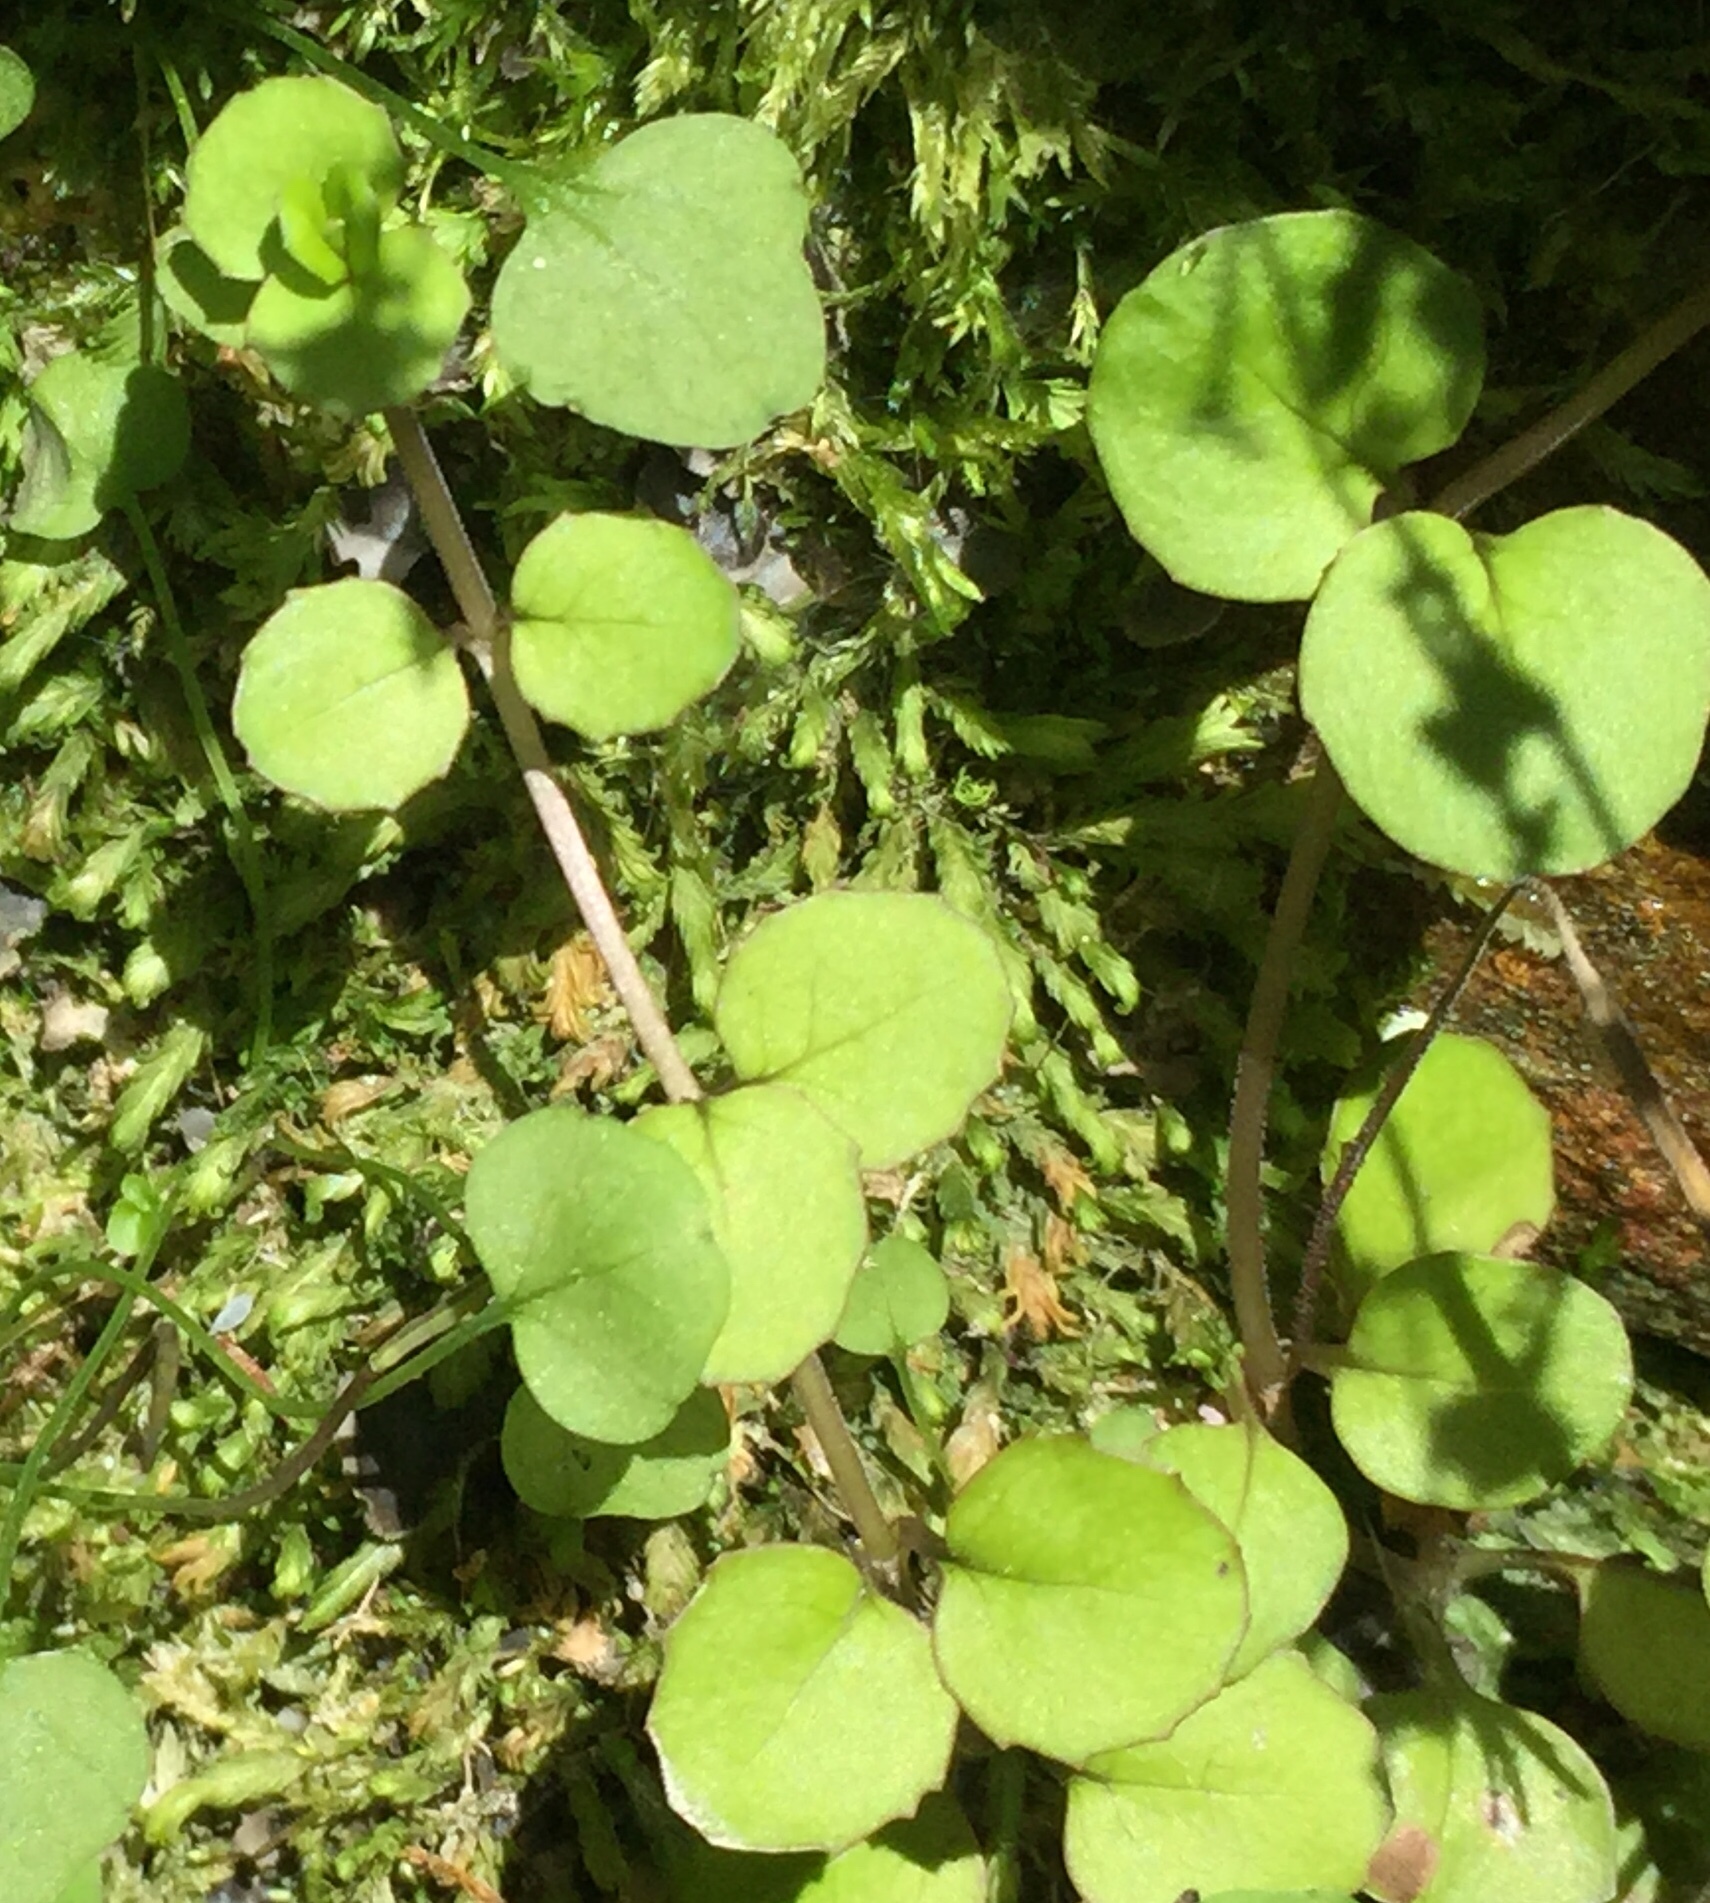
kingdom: Plantae
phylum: Tracheophyta
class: Magnoliopsida
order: Myrtales
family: Onagraceae
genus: Epilobium
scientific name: Epilobium nummularifolium
